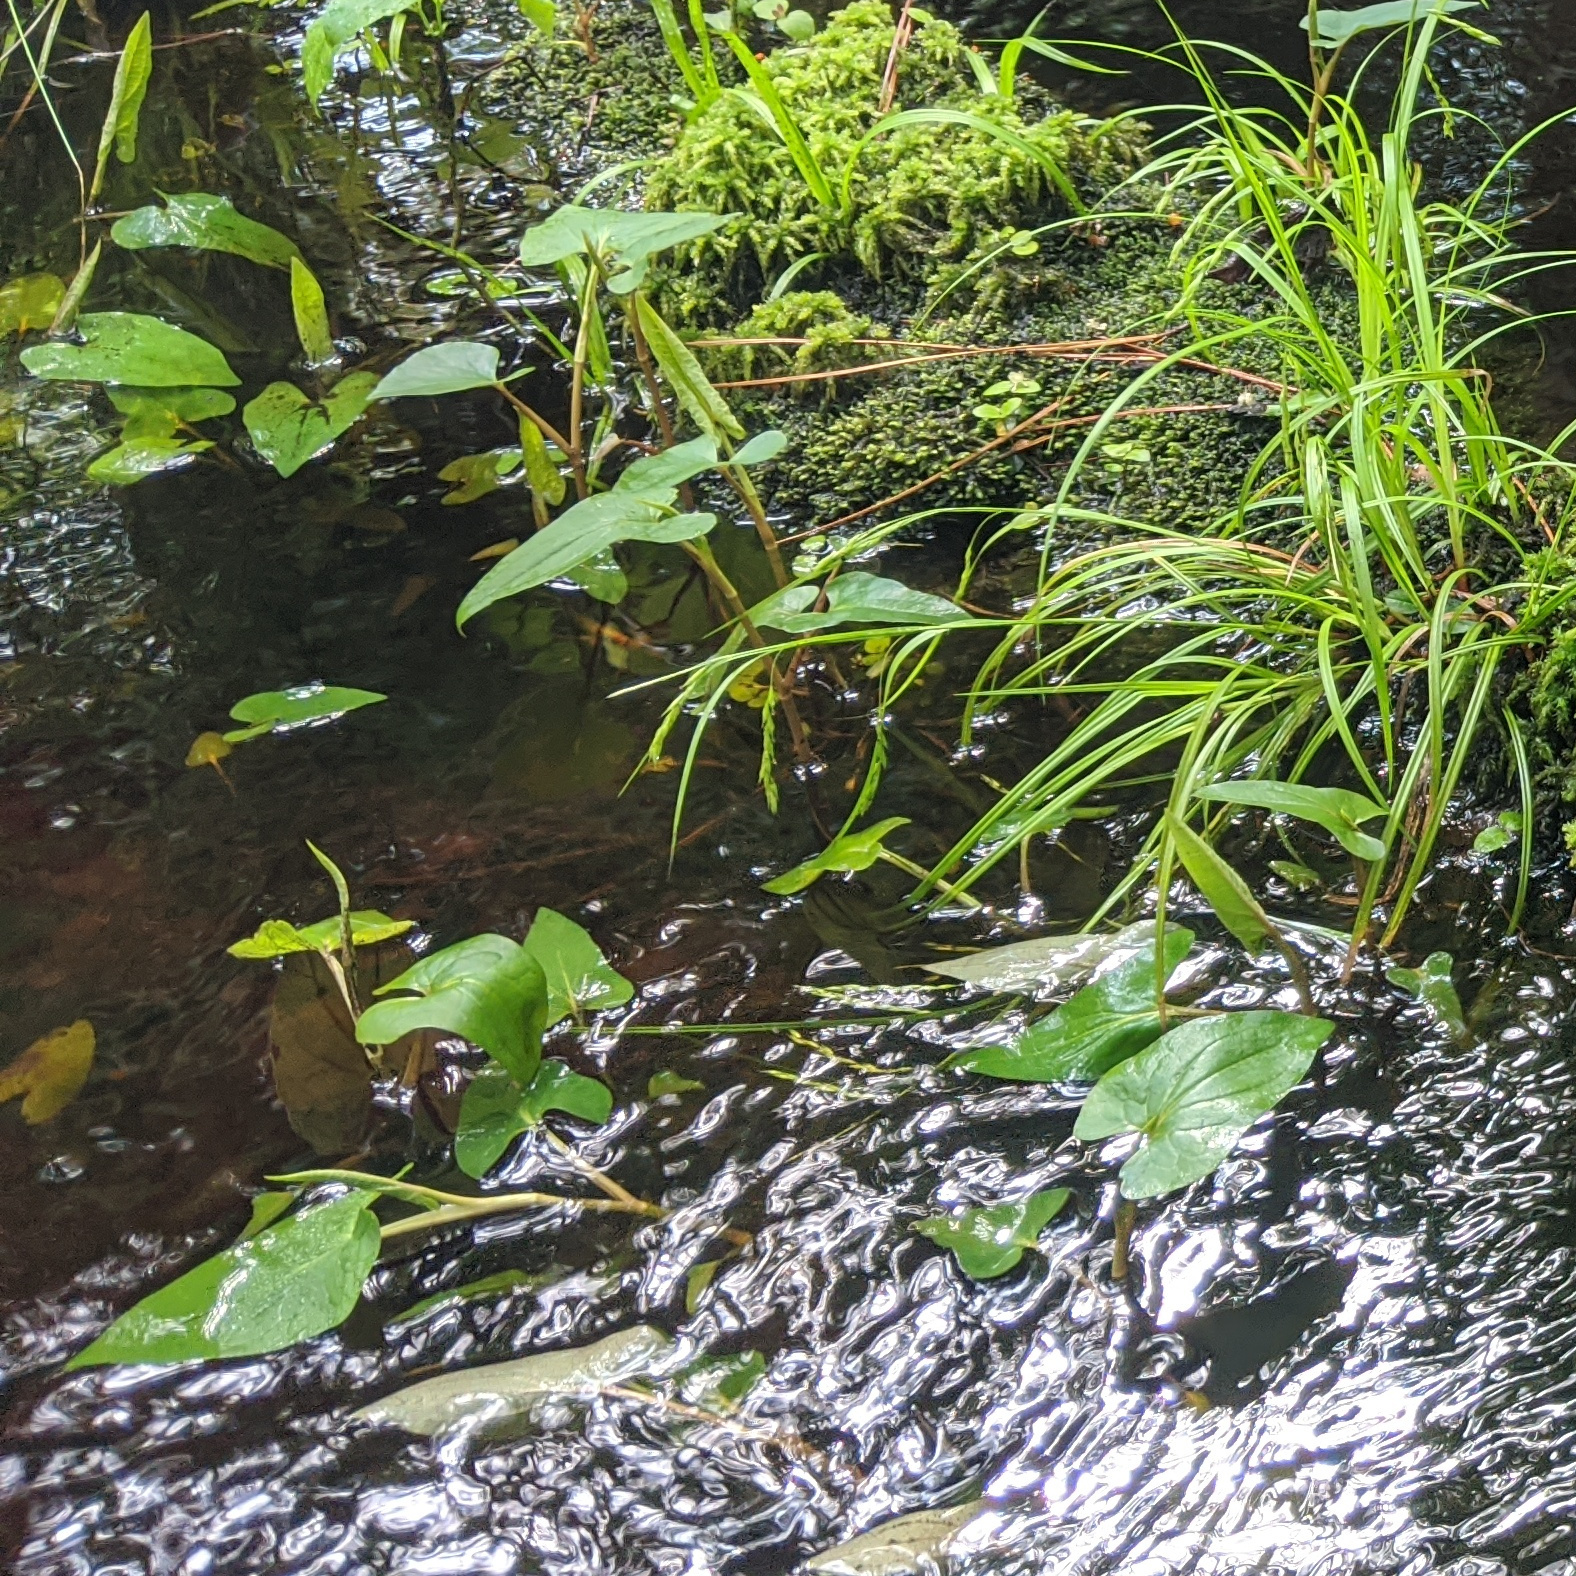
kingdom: Plantae
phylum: Tracheophyta
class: Magnoliopsida
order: Piperales
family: Saururaceae
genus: Saururus
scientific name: Saururus cernuus
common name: Lizard's-tail
